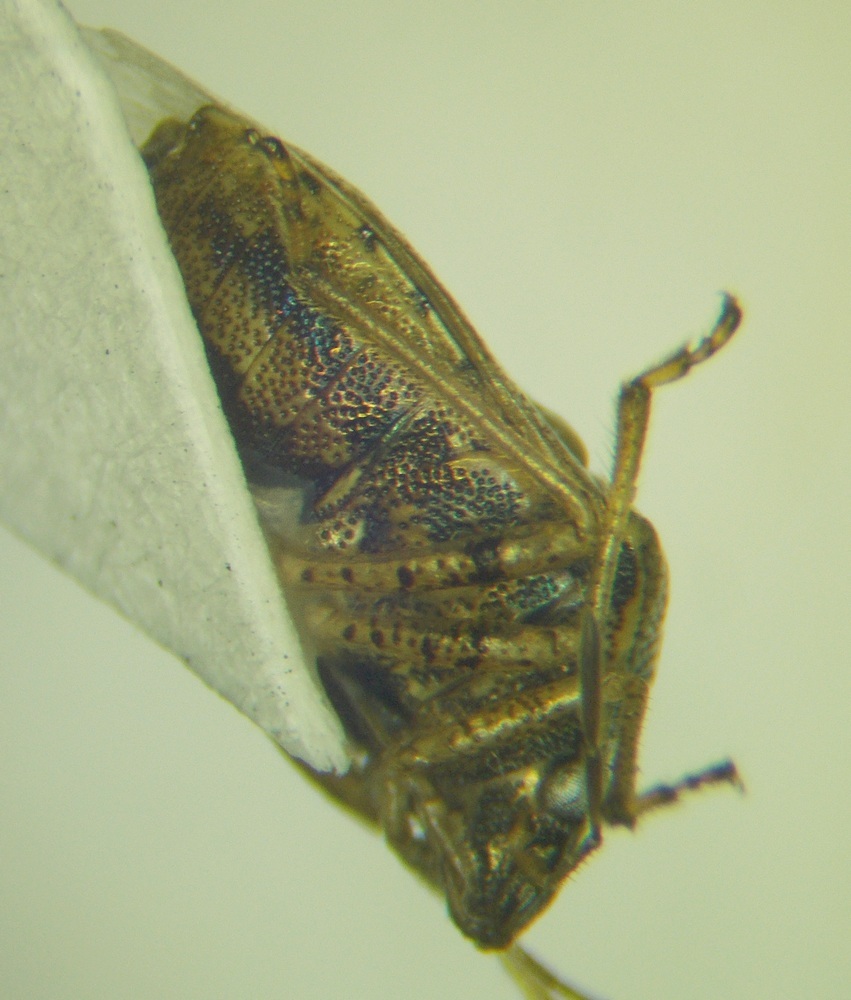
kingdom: Animalia
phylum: Arthropoda
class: Insecta
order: Hemiptera
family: Pentatomidae
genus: Eysarcoris
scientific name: Eysarcoris ventralis
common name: White-spotted stink bug
